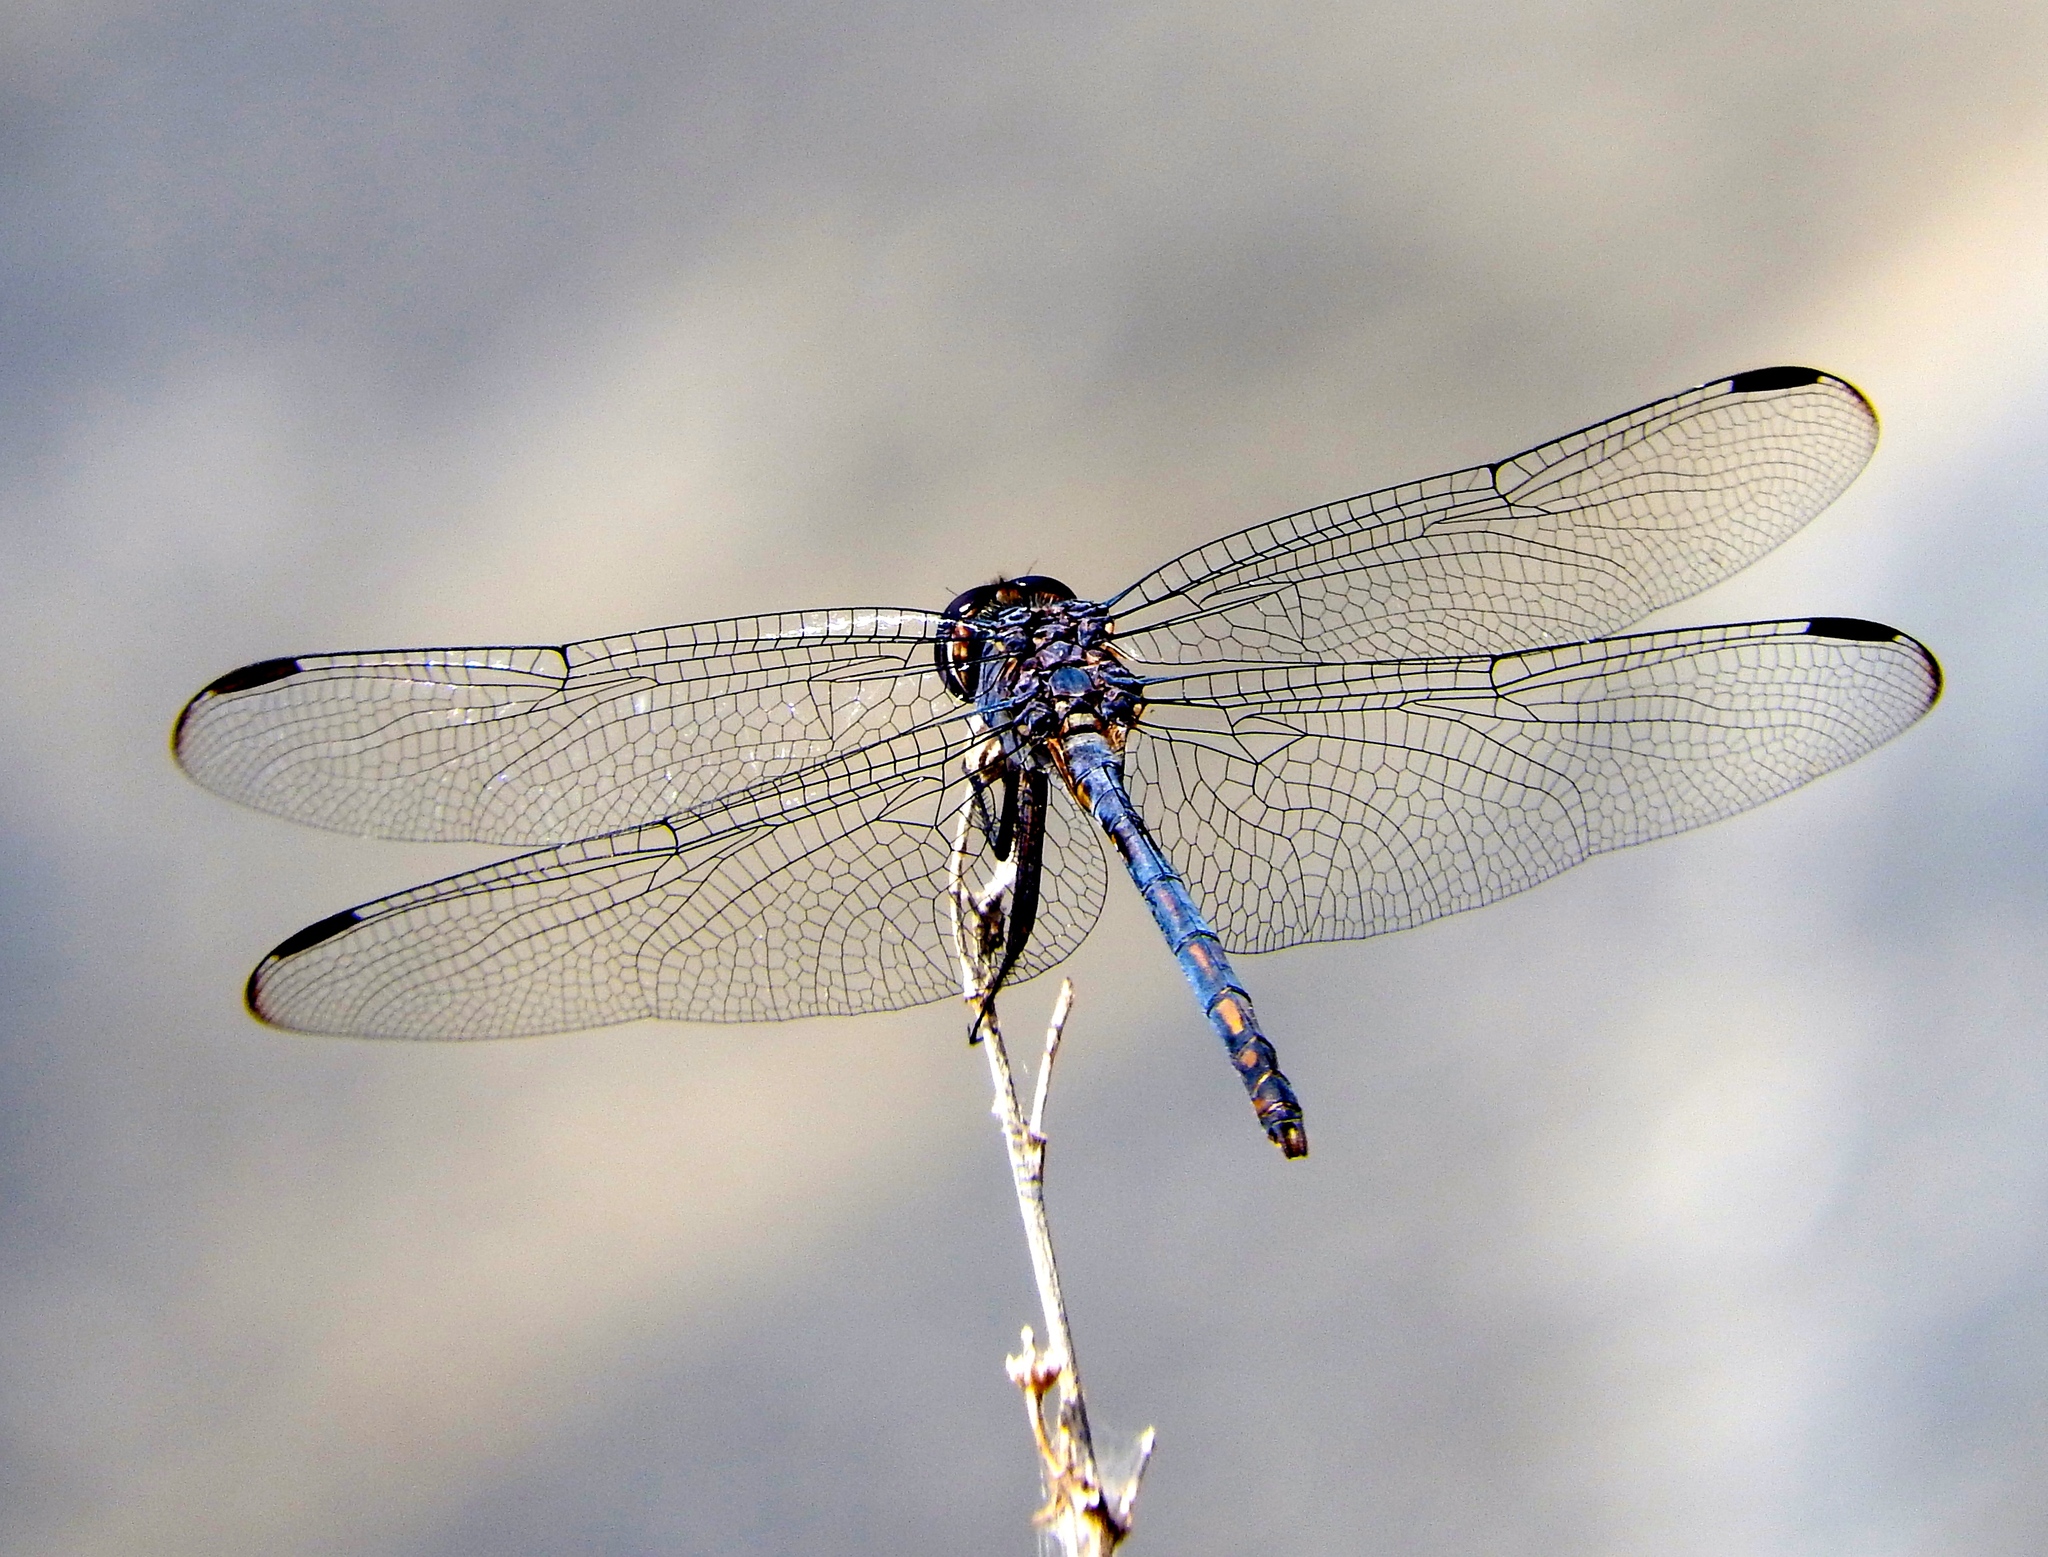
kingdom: Animalia
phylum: Arthropoda
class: Insecta
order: Odonata
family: Libellulidae
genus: Dythemis
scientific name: Dythemis nigrescens
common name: Black setwing
